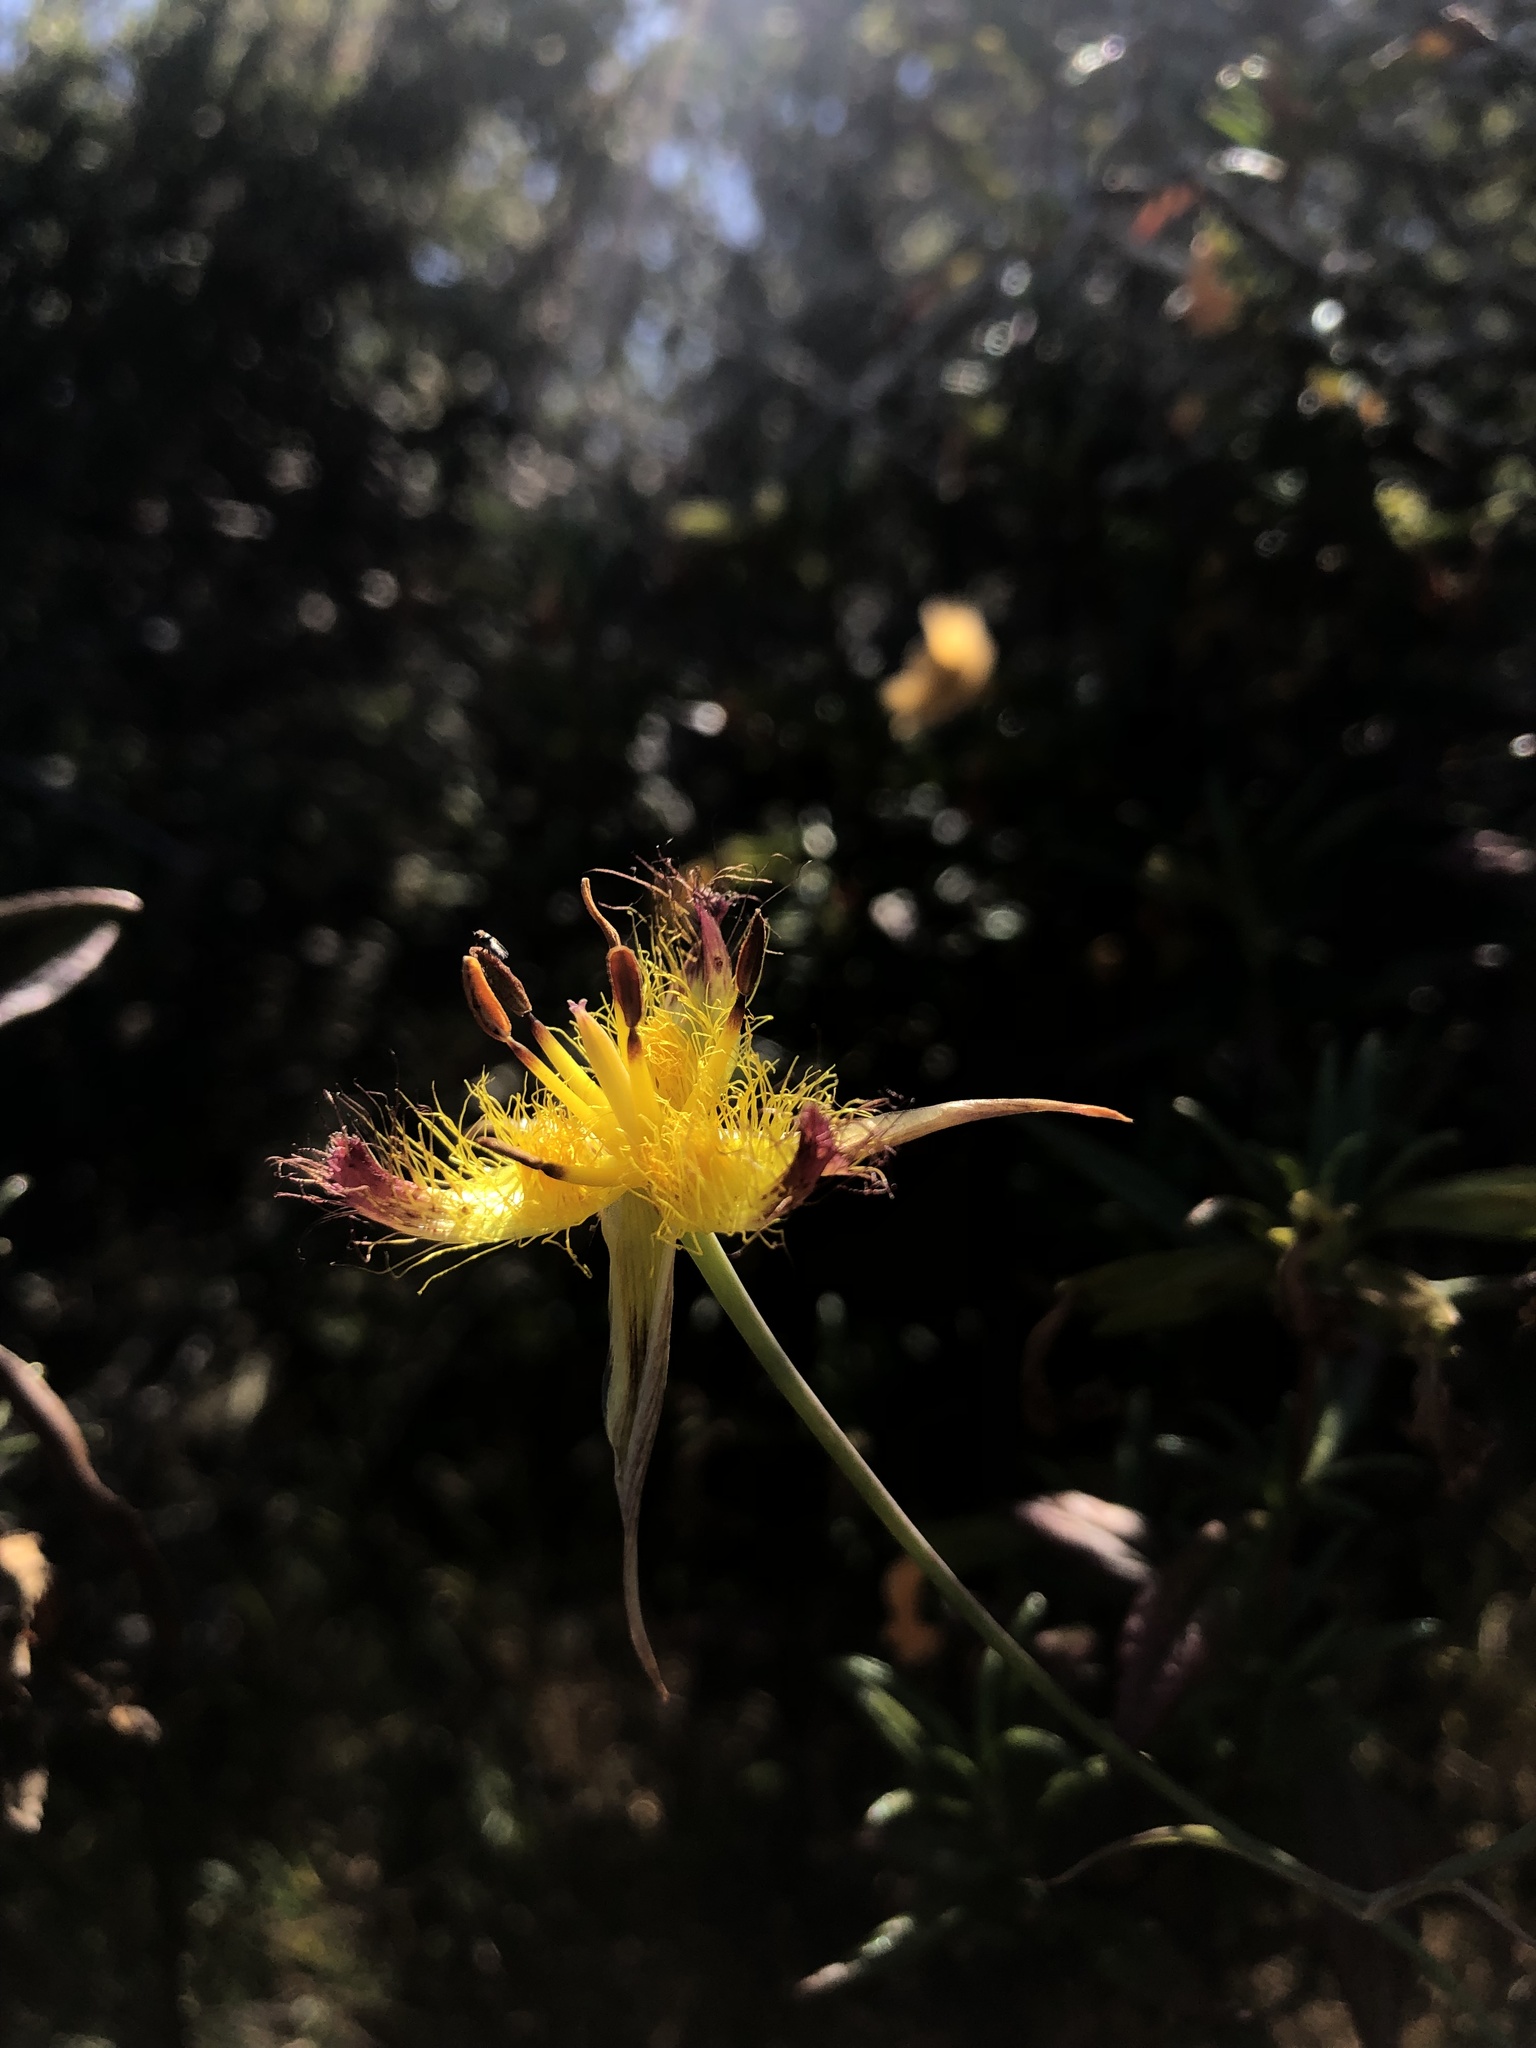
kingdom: Plantae
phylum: Tracheophyta
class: Liliopsida
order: Liliales
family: Liliaceae
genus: Calochortus
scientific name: Calochortus obispoensis
